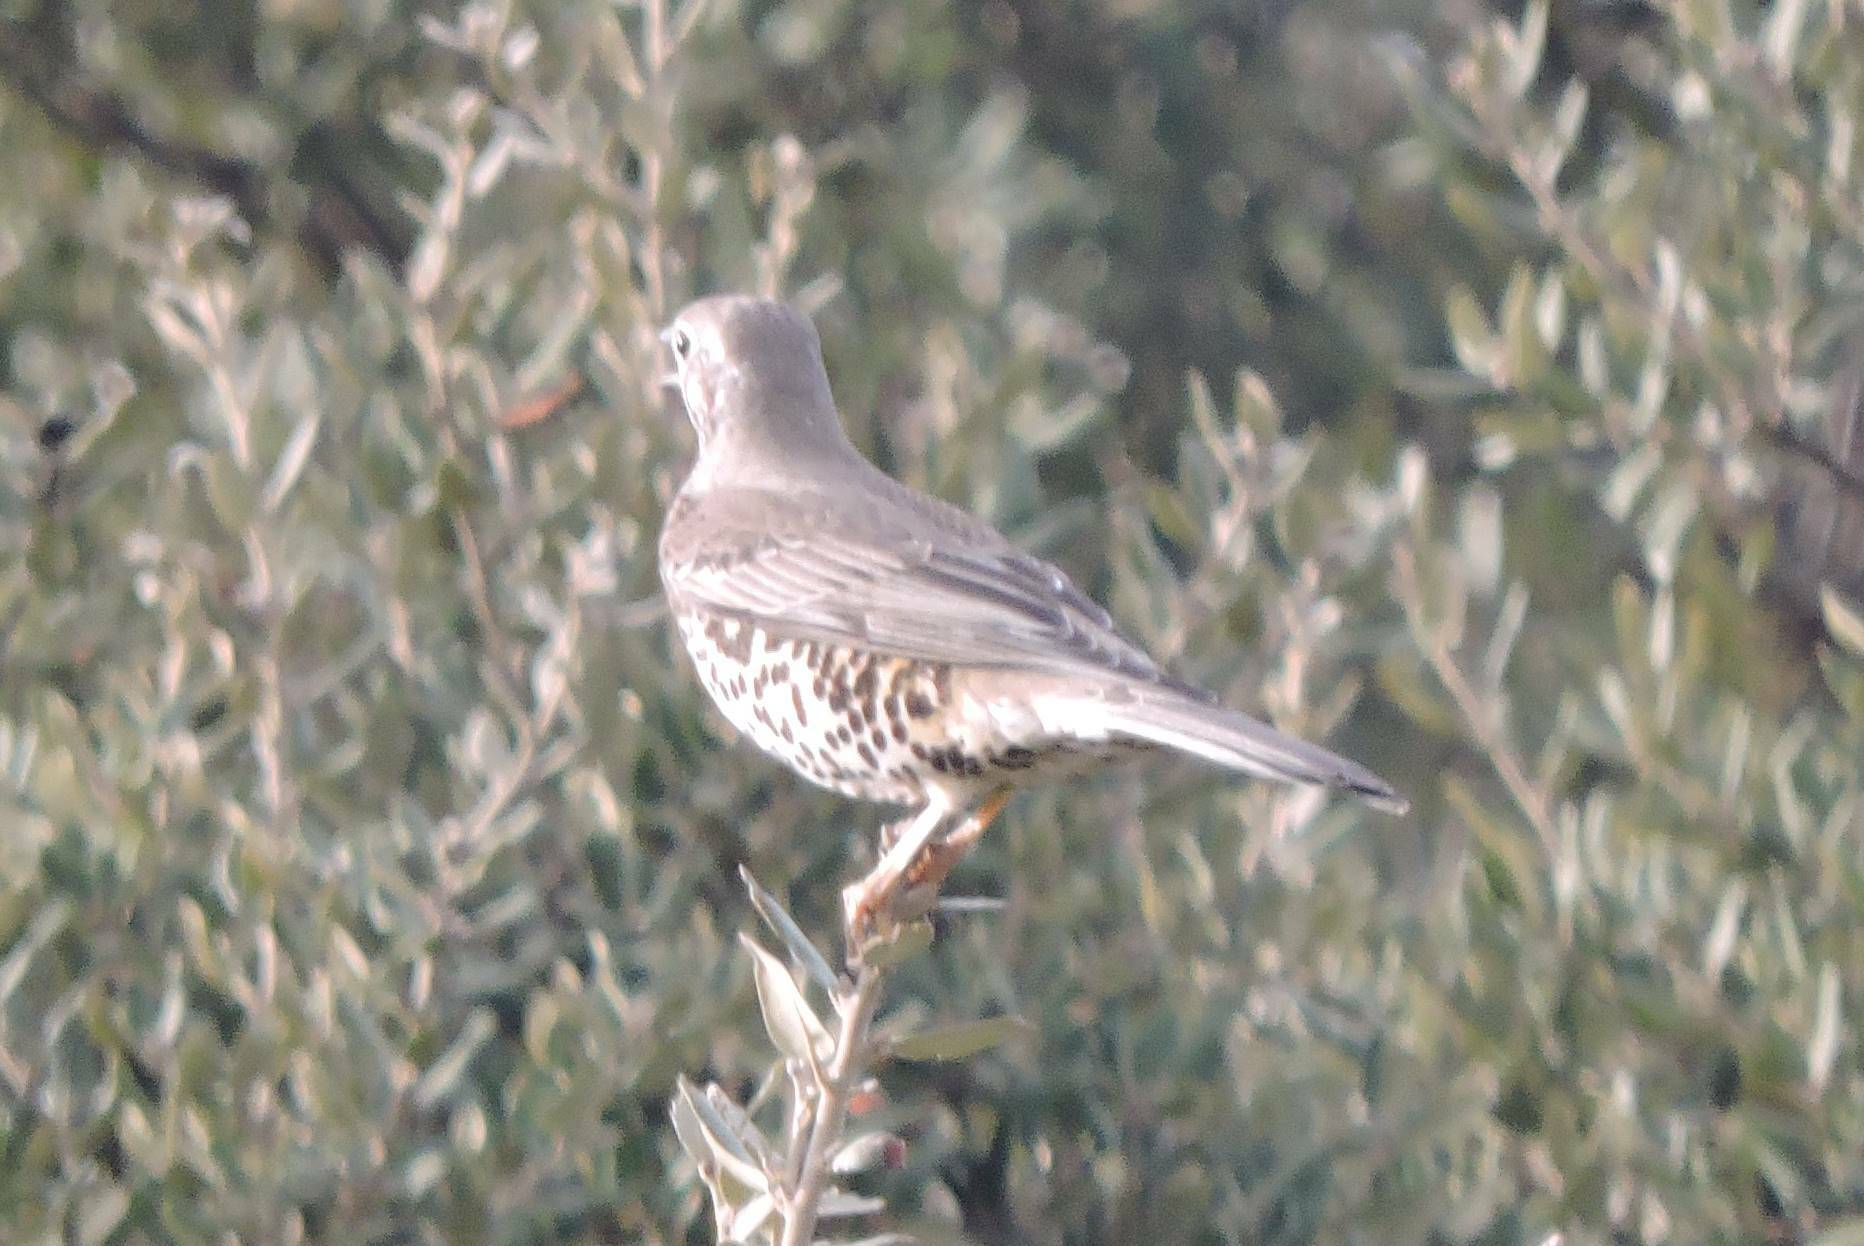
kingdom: Animalia
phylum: Chordata
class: Aves
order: Passeriformes
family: Turdidae
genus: Turdus
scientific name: Turdus viscivorus
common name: Mistle thrush
